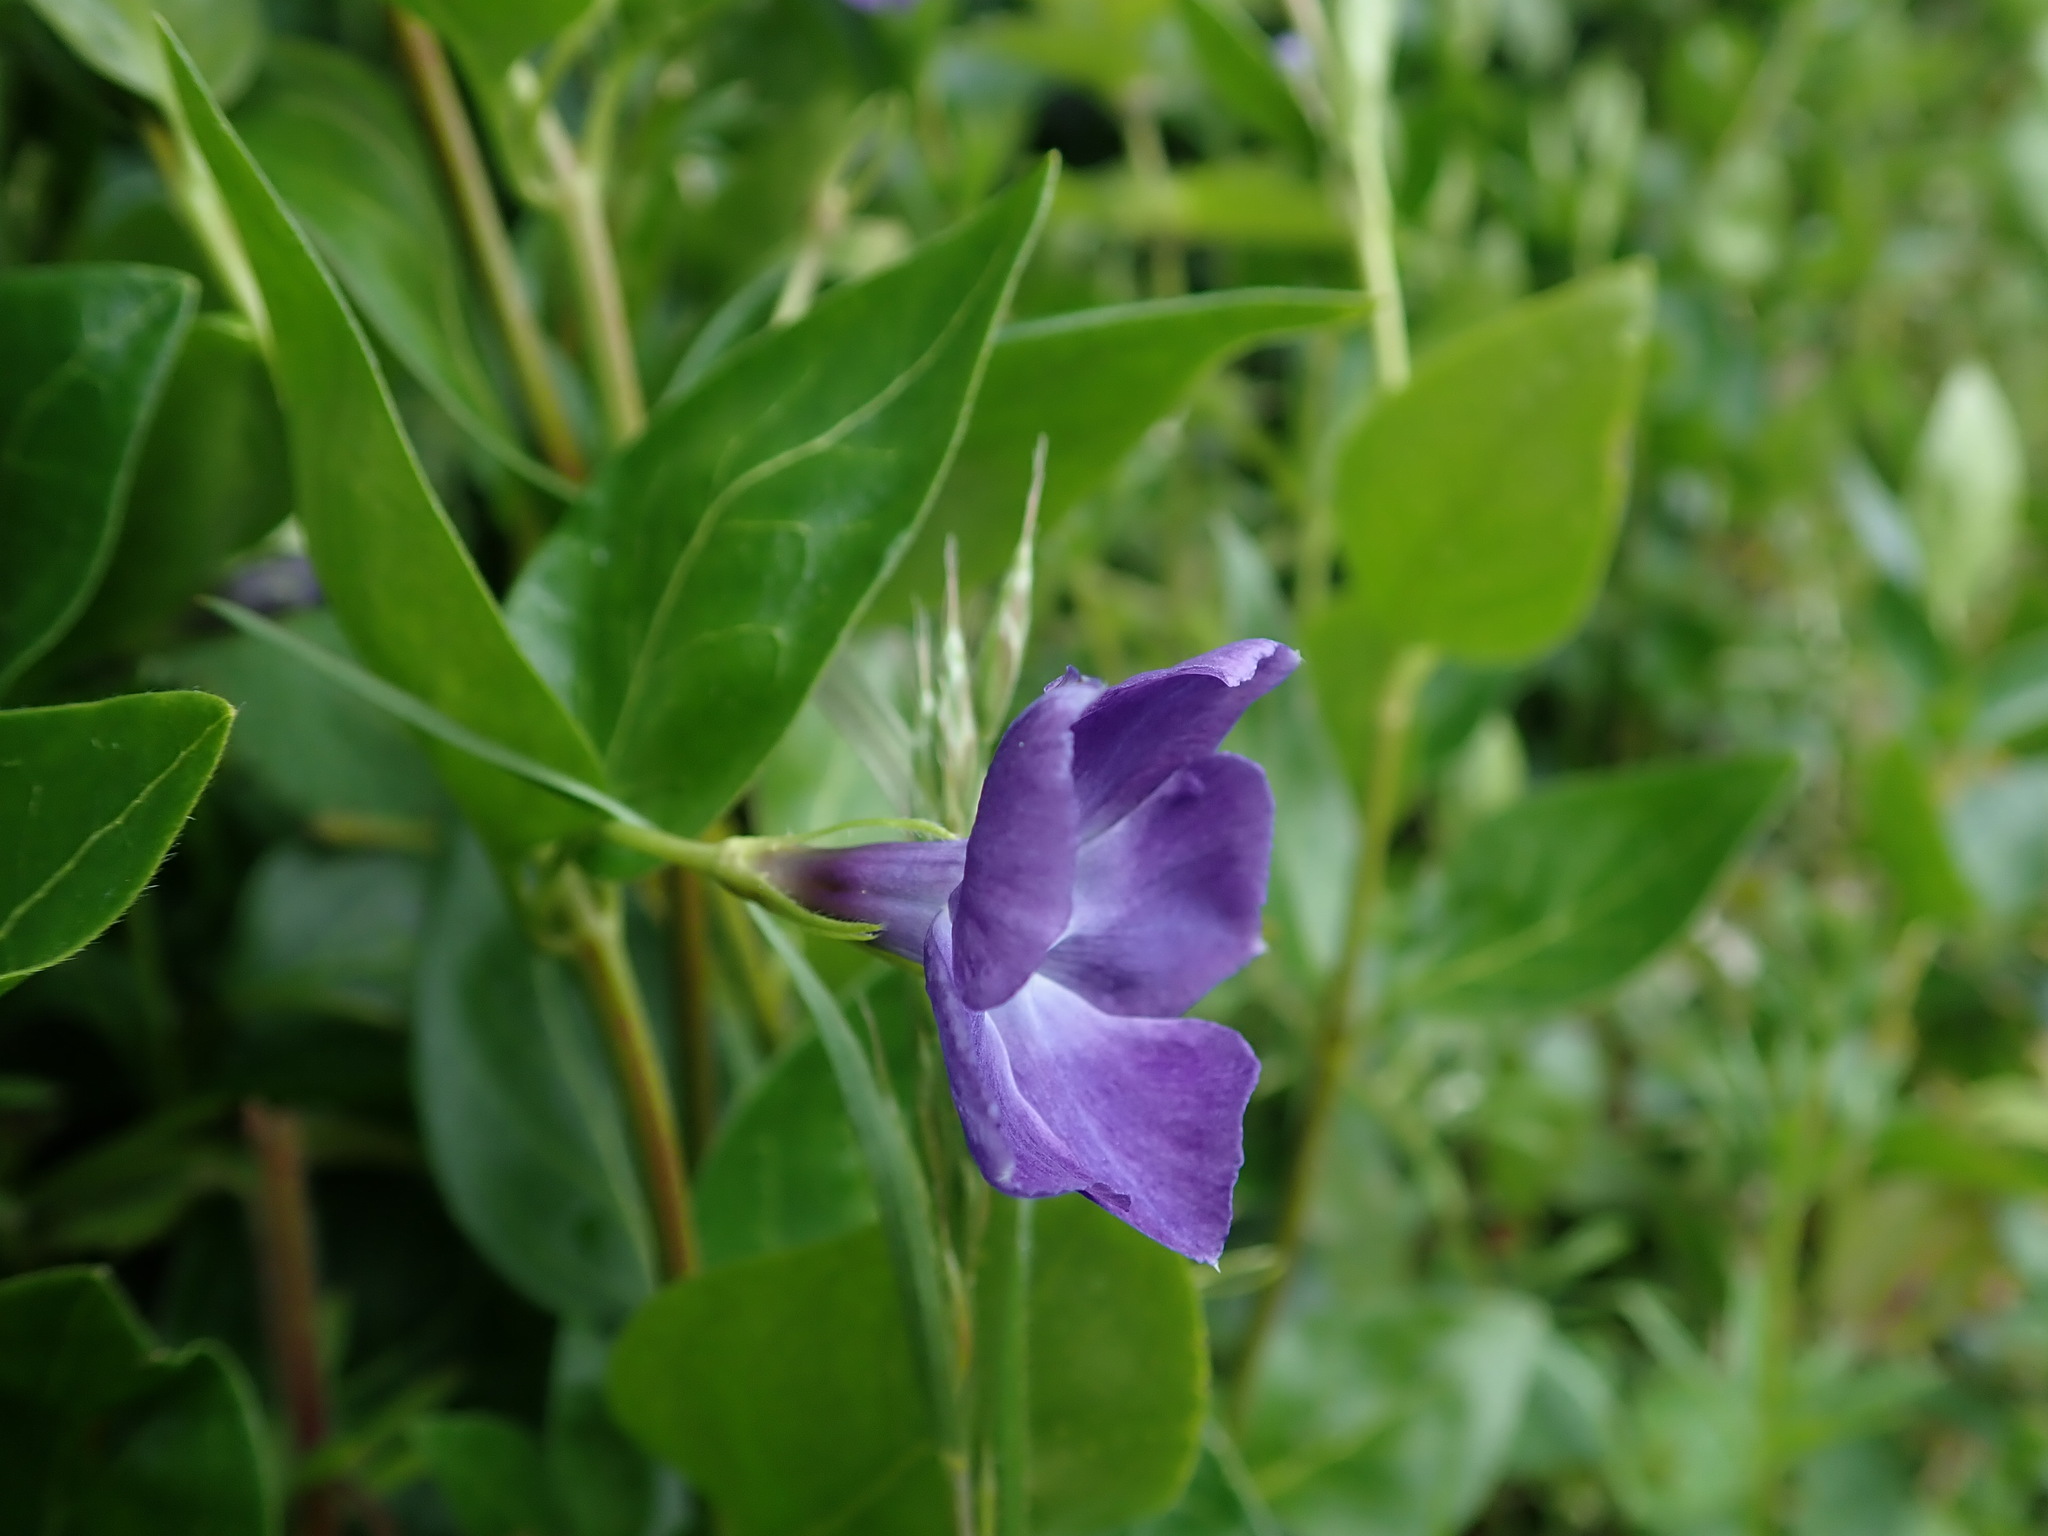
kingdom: Plantae
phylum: Tracheophyta
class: Magnoliopsida
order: Gentianales
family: Apocynaceae
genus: Vinca
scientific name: Vinca major
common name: Greater periwinkle
